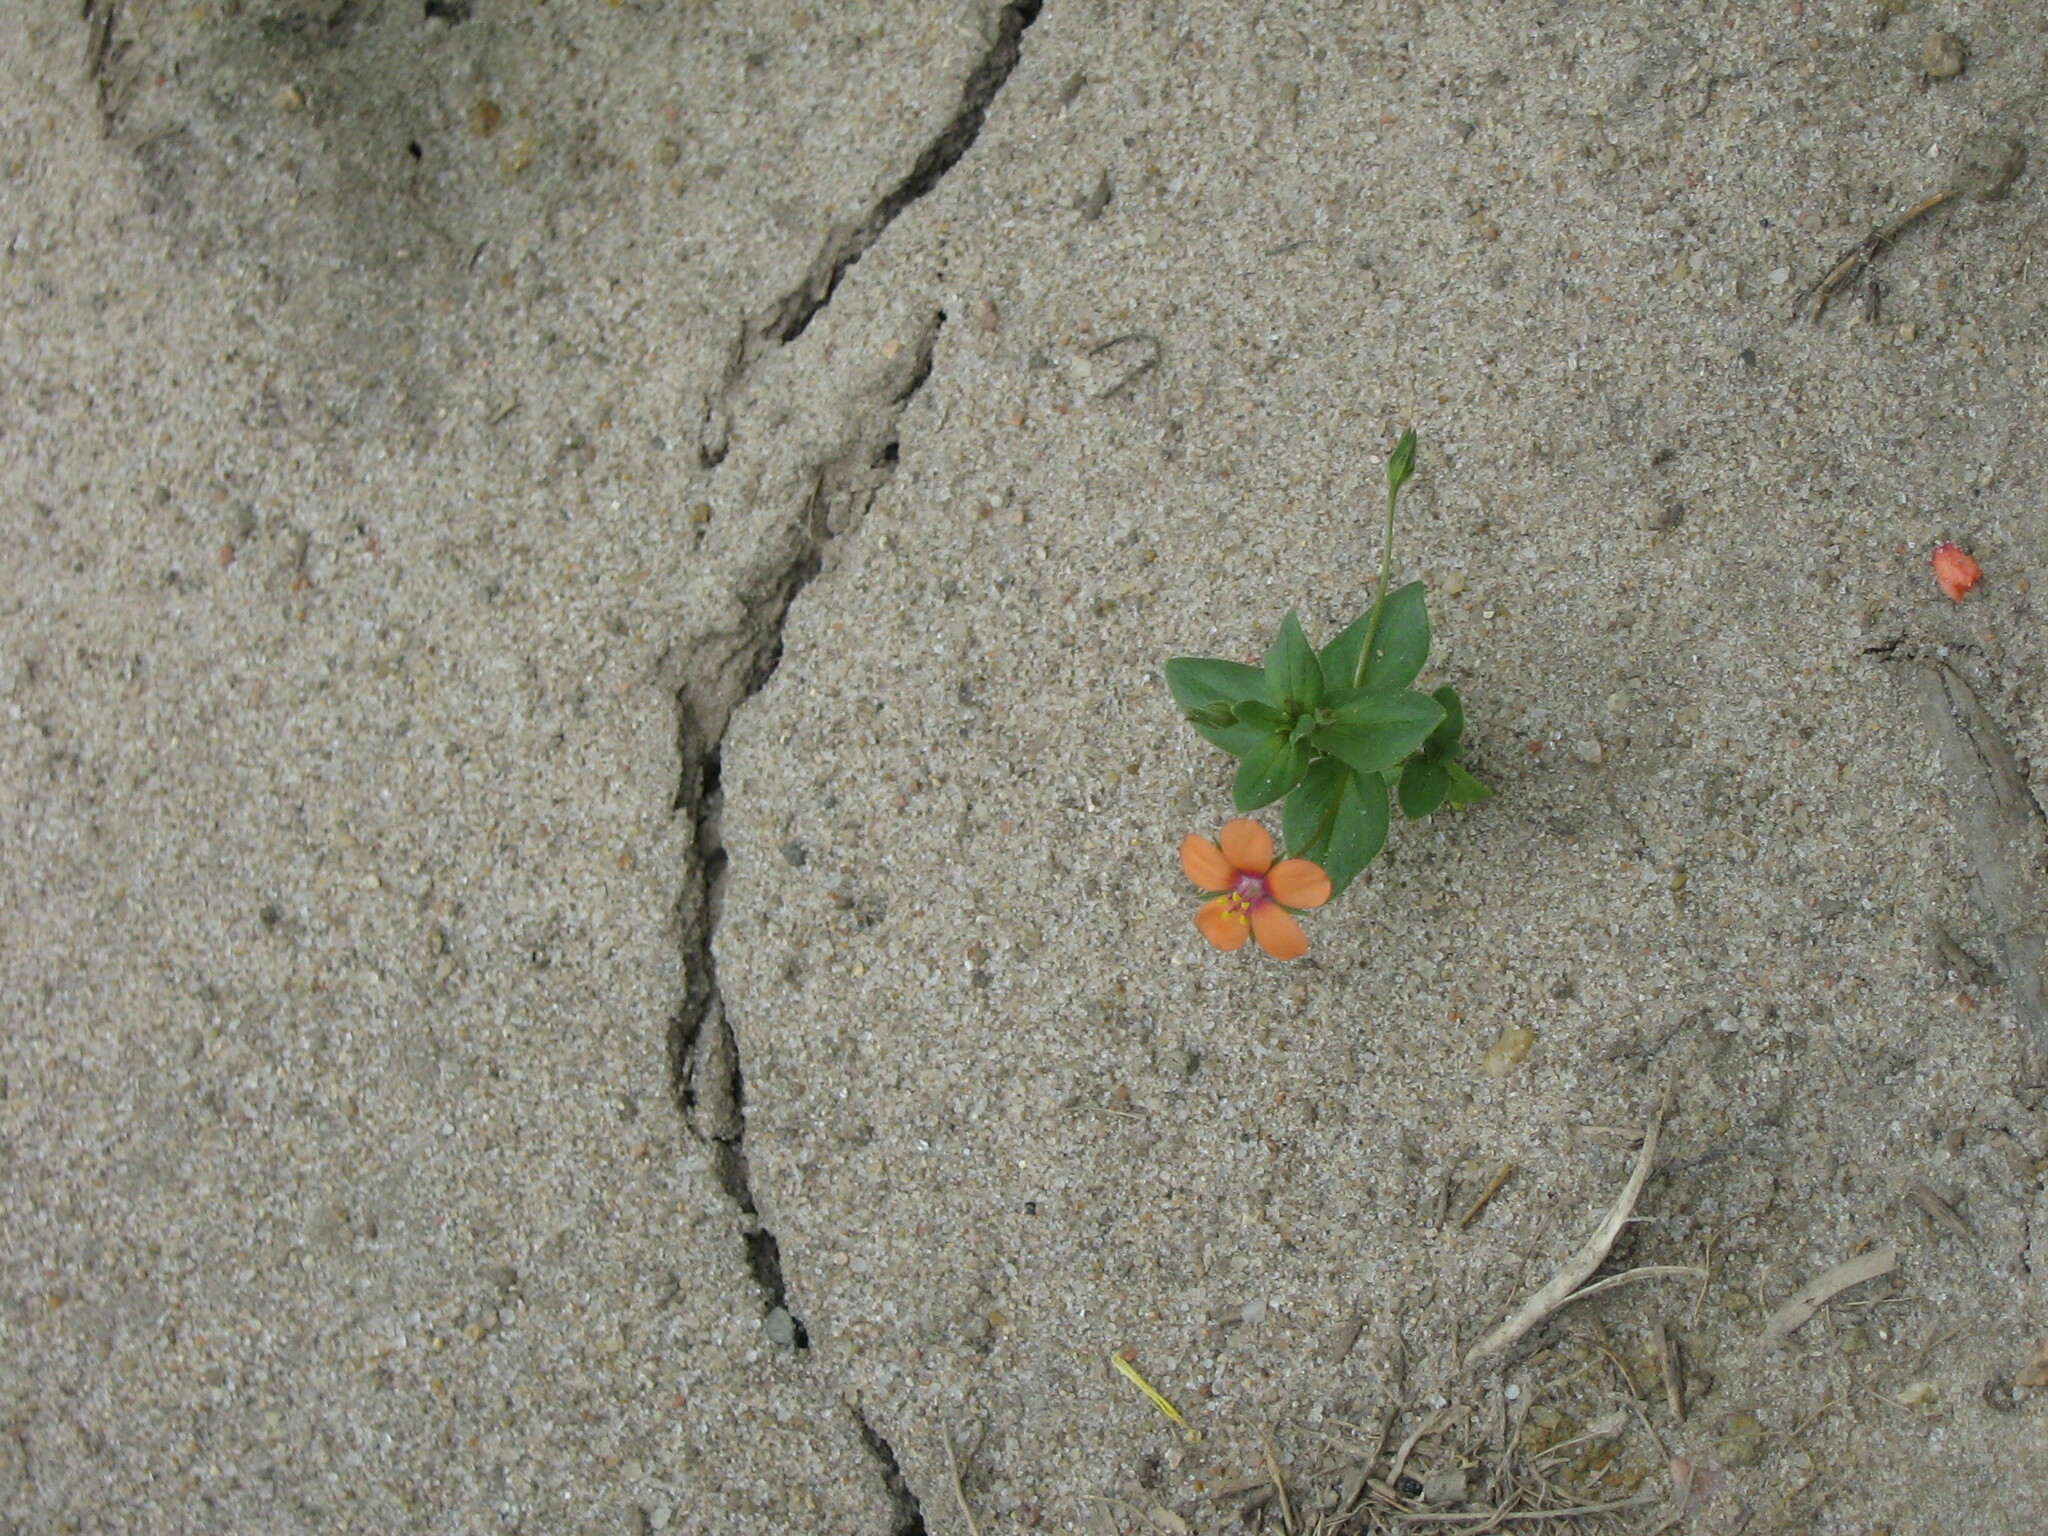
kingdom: Plantae
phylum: Tracheophyta
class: Magnoliopsida
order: Ericales
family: Primulaceae
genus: Lysimachia
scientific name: Lysimachia arvensis
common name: Scarlet pimpernel
